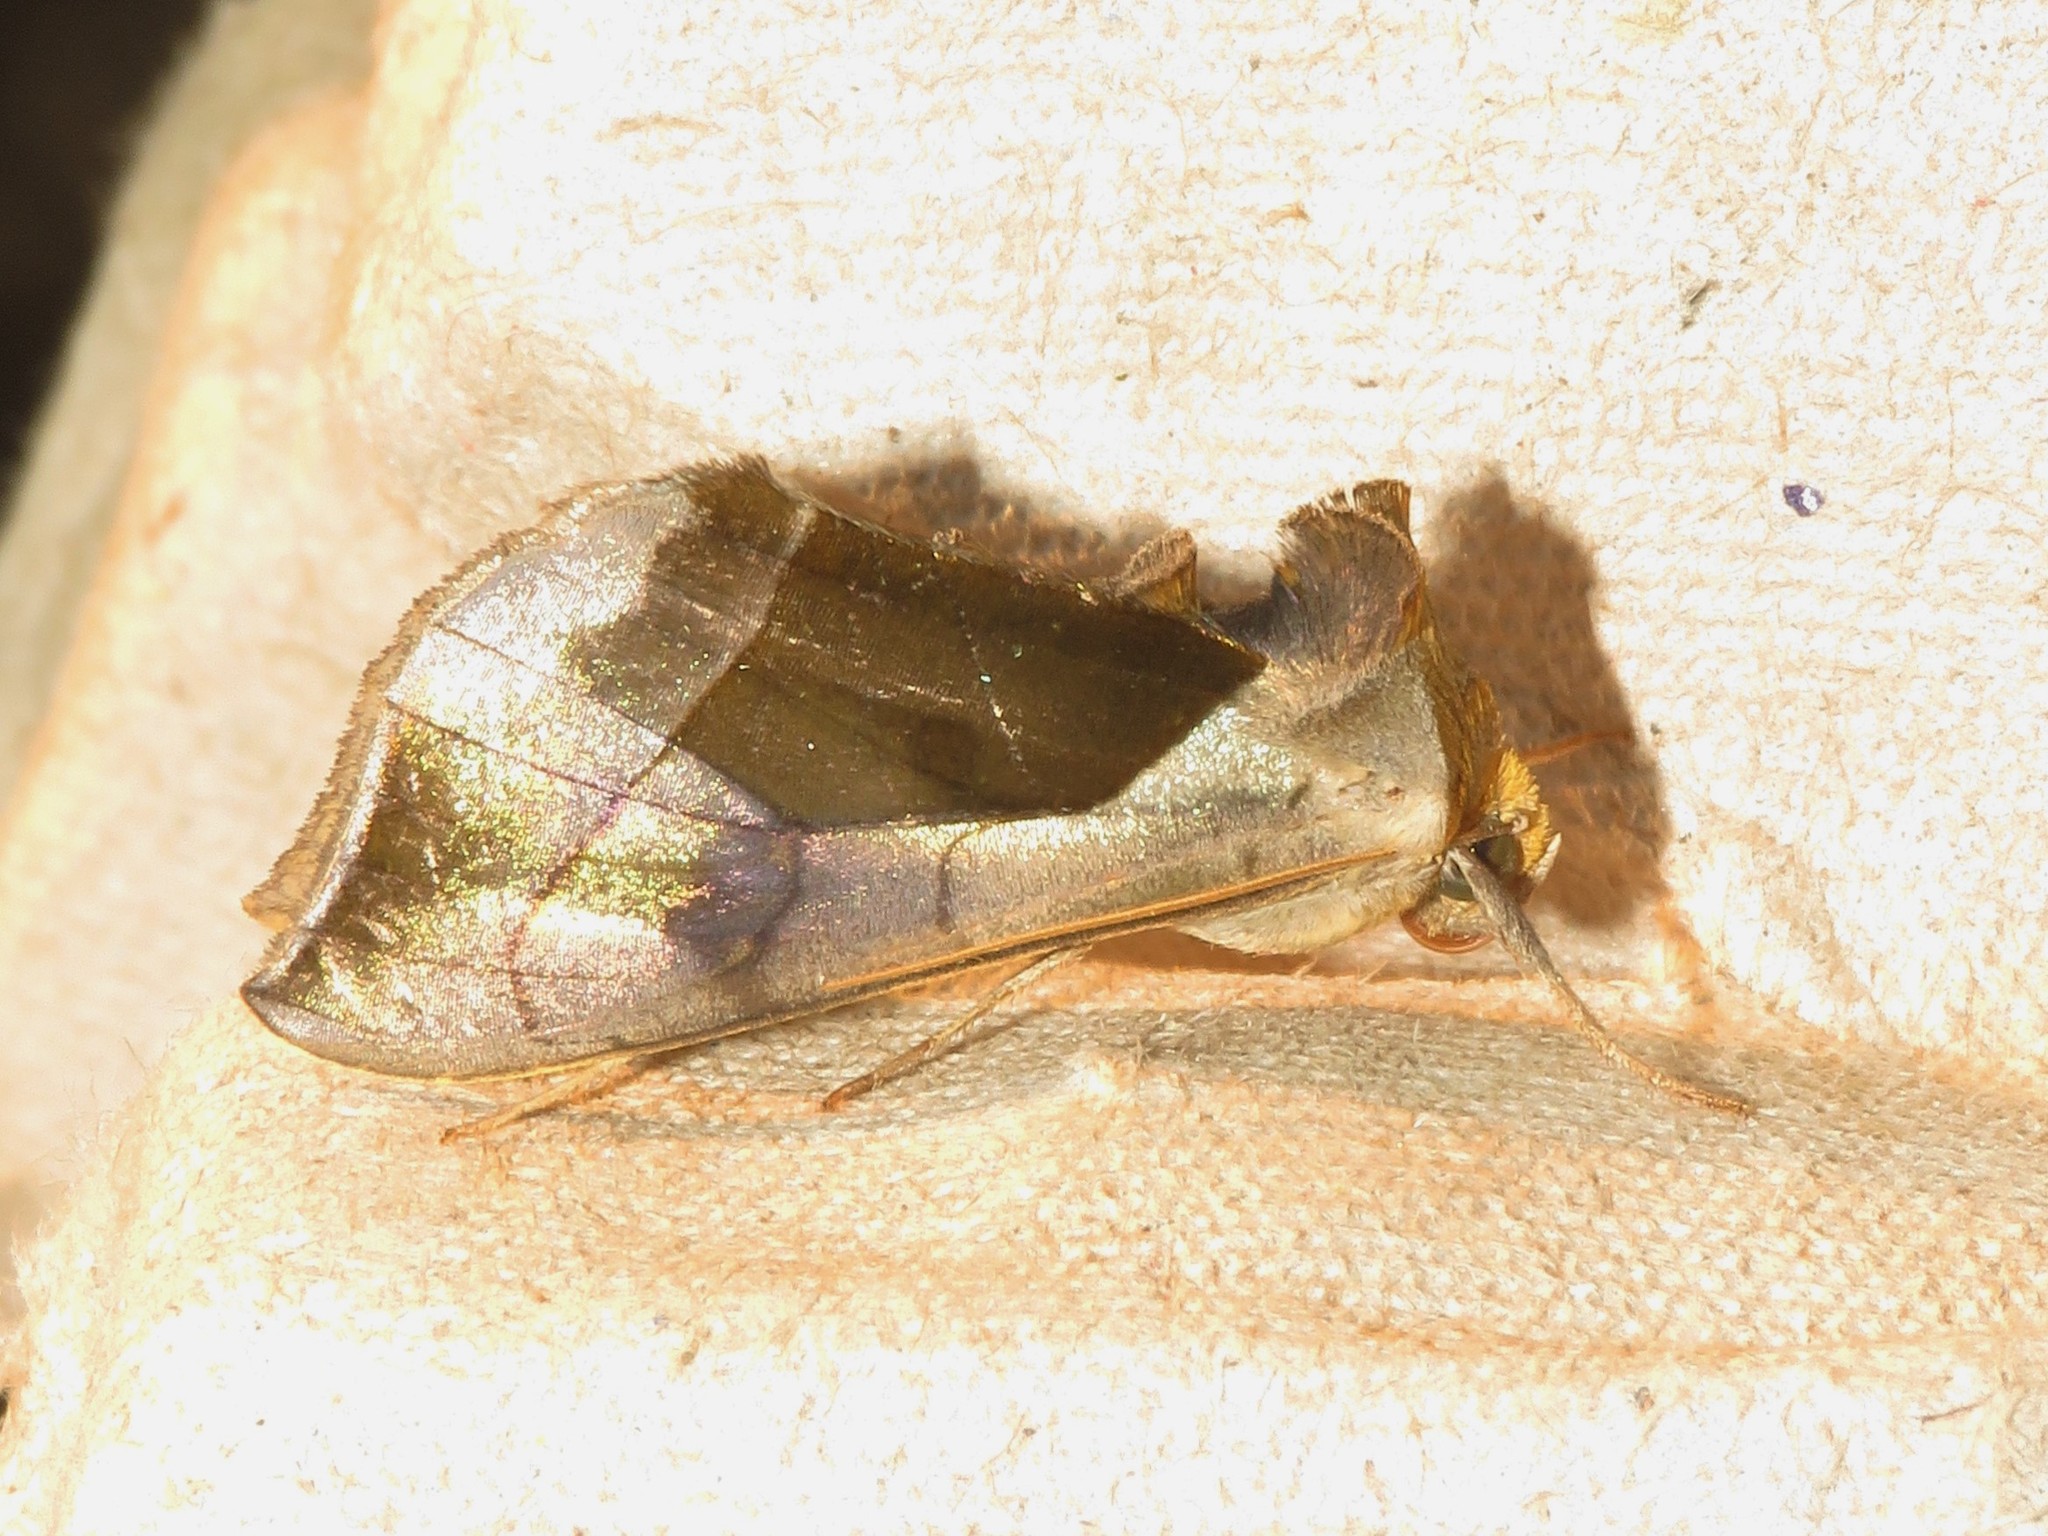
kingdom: Animalia
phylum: Arthropoda
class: Insecta
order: Lepidoptera
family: Noctuidae
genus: Diachrysia
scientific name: Diachrysia balluca
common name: Green-patched looper moth
